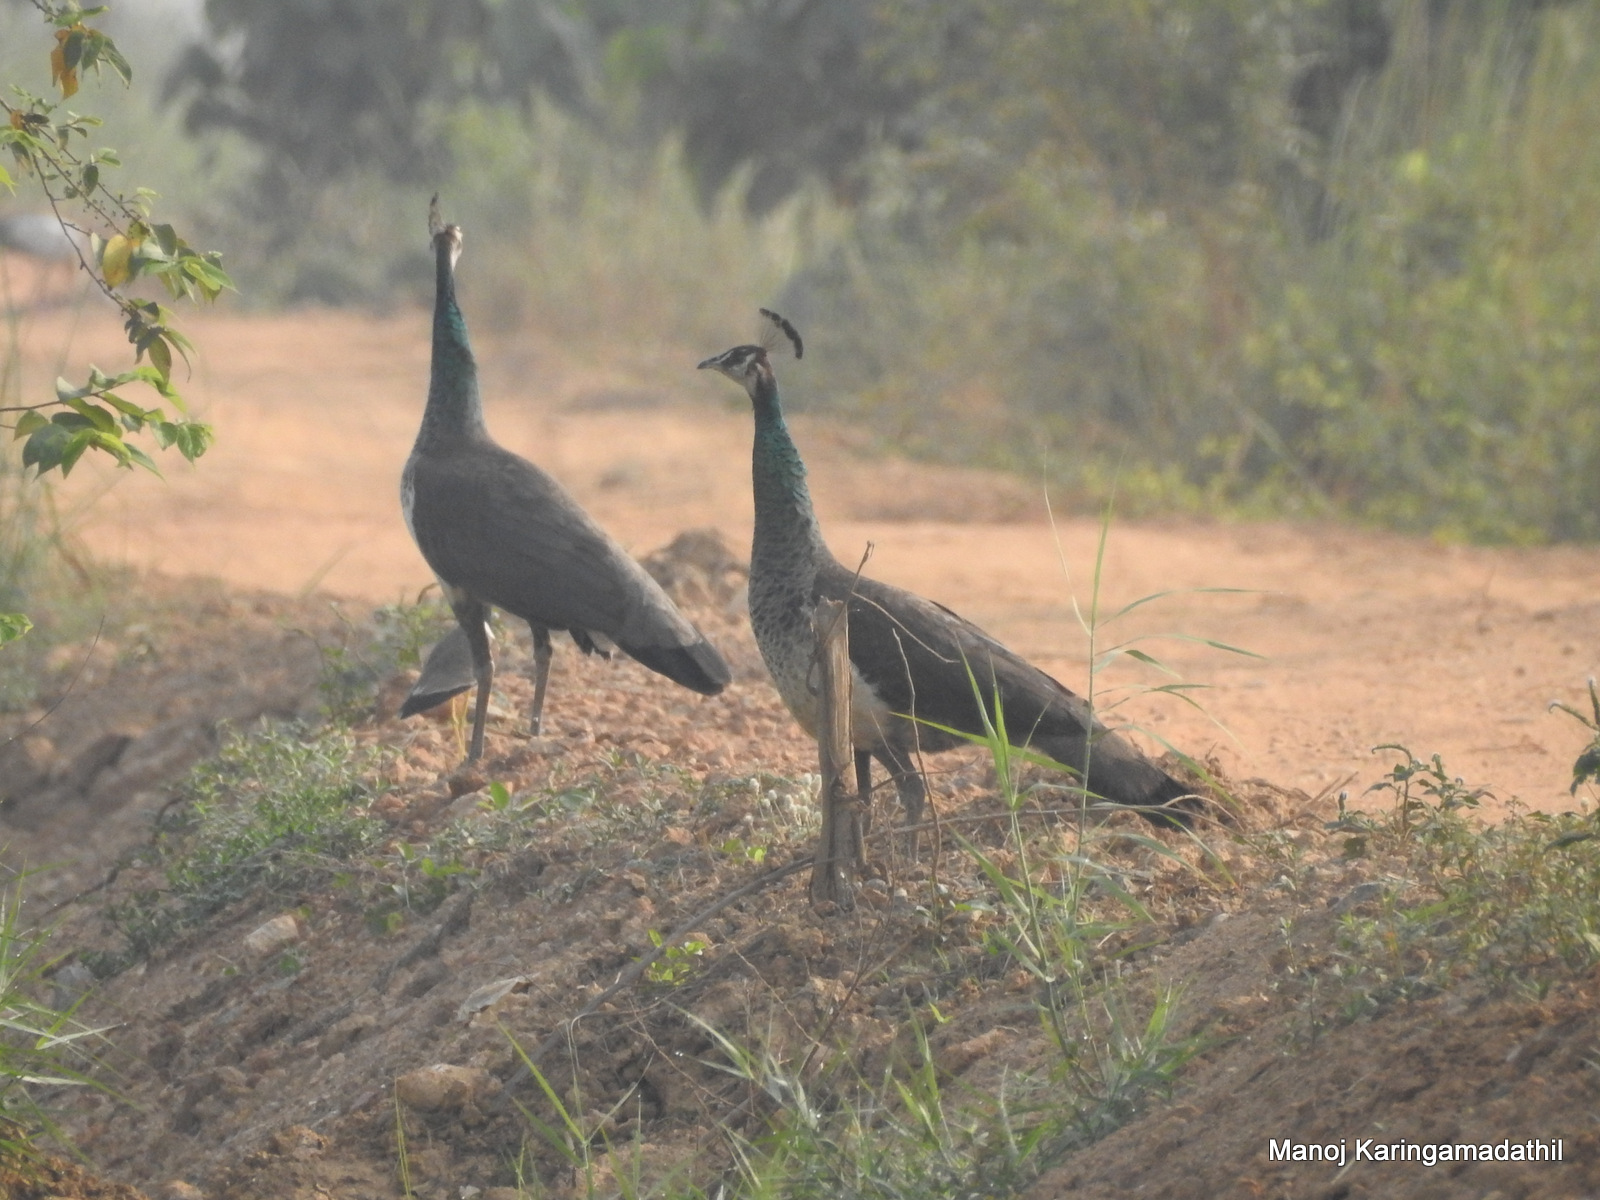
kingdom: Animalia
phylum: Chordata
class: Aves
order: Galliformes
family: Phasianidae
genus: Pavo
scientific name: Pavo cristatus
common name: Indian peafowl
